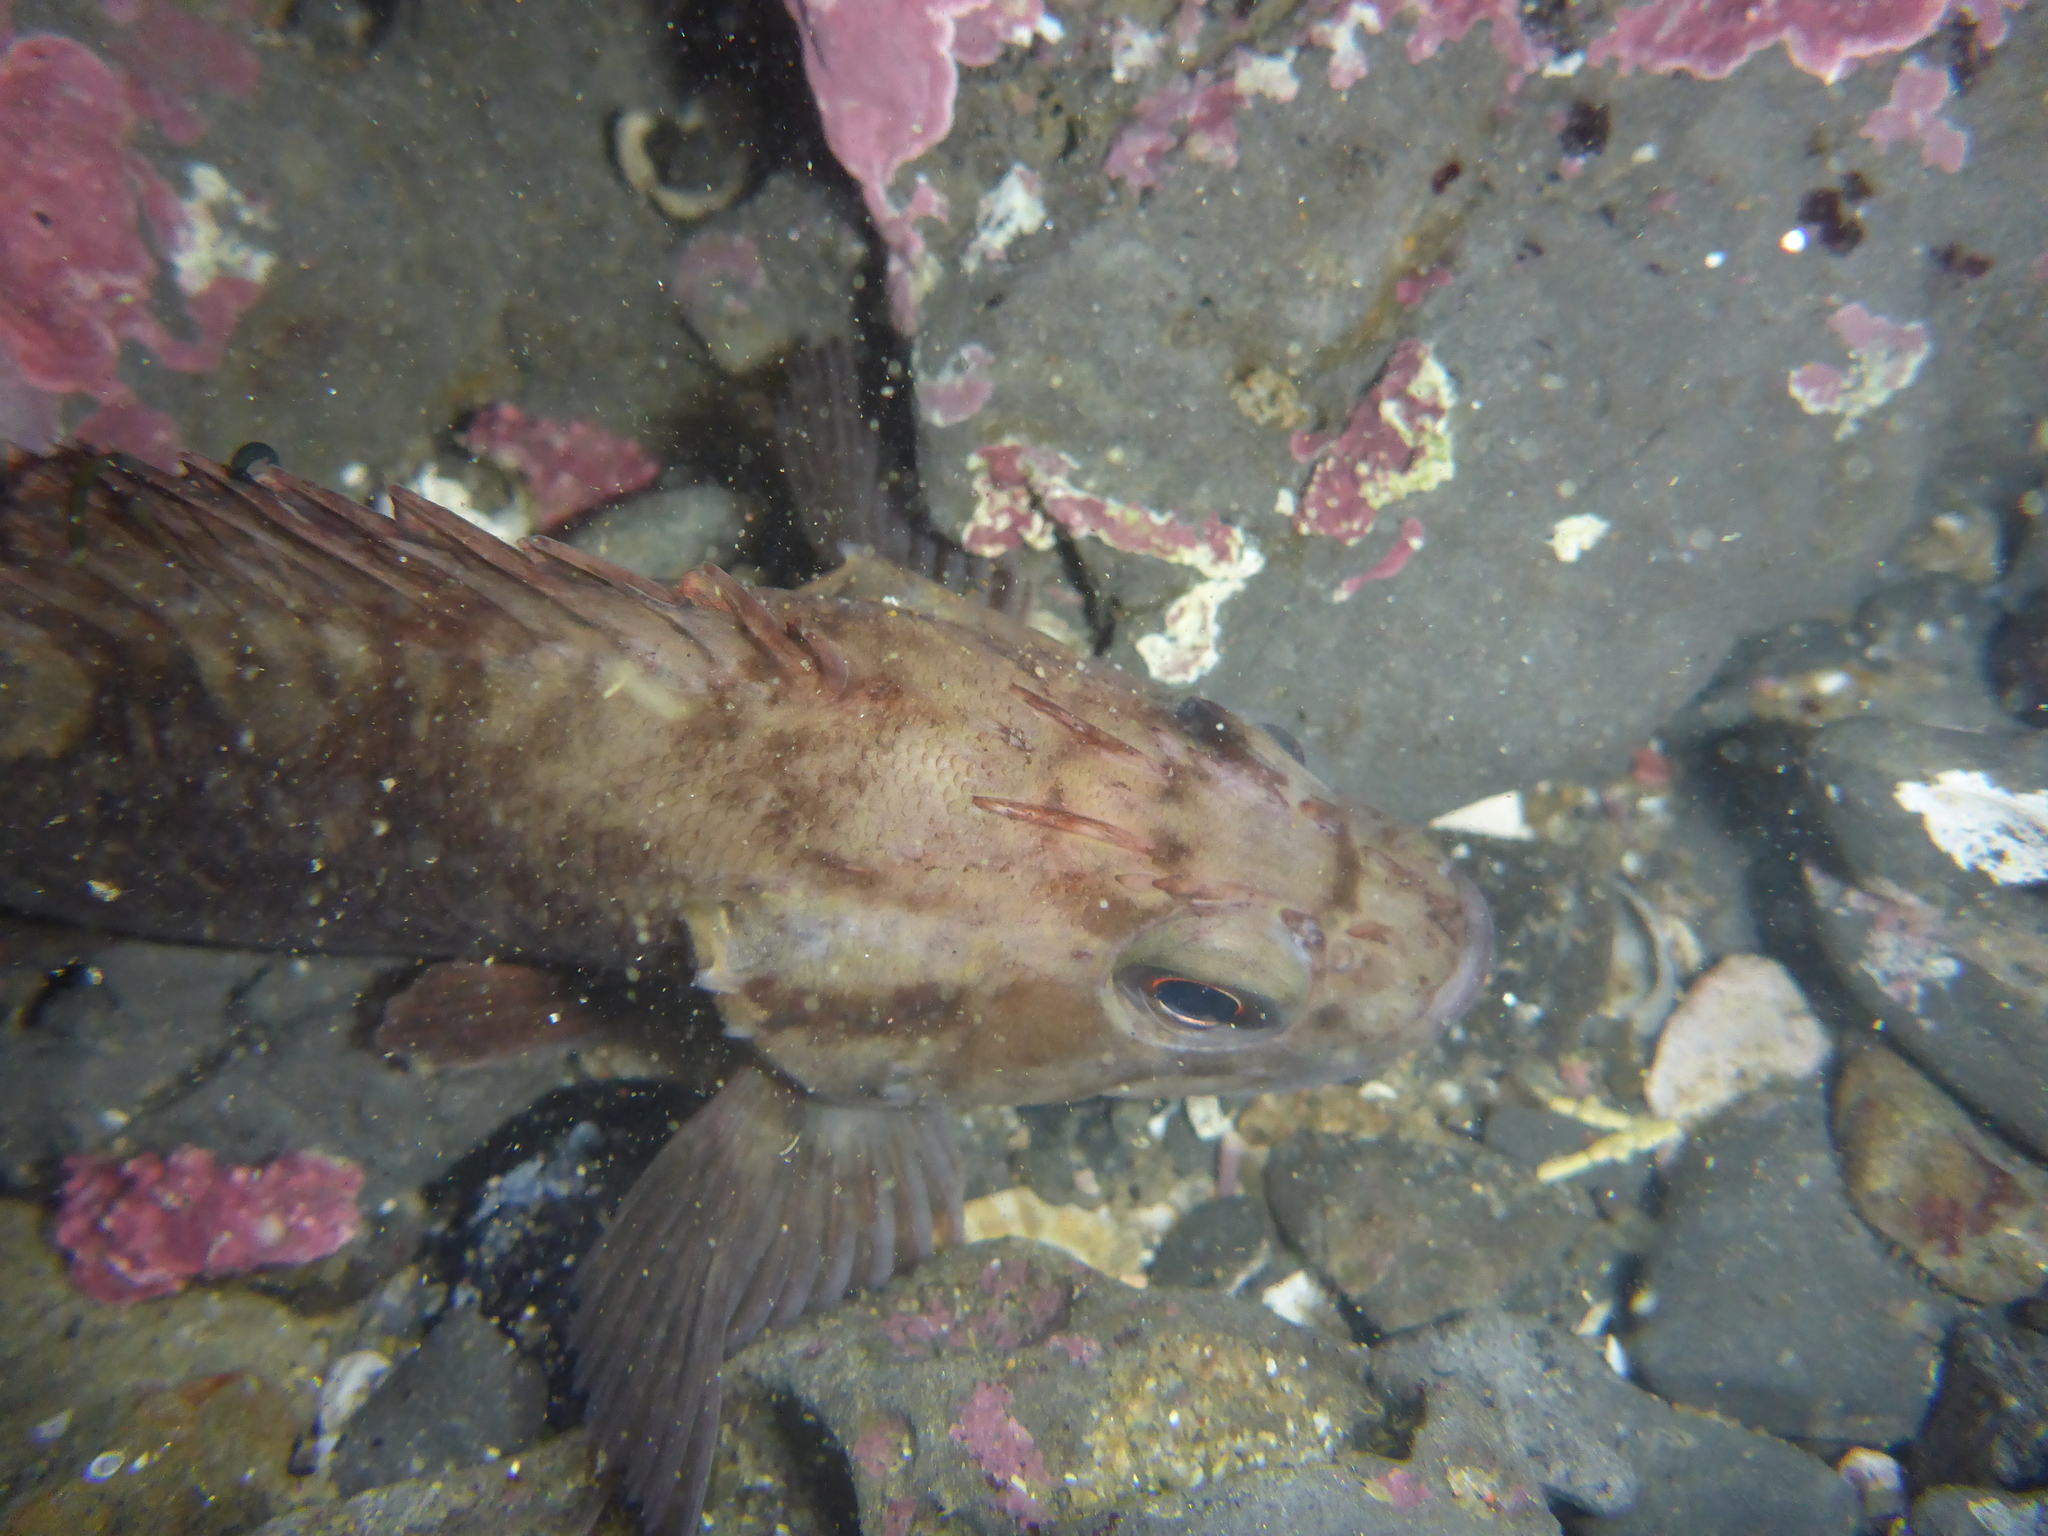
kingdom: Animalia
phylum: Chordata
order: Scorpaeniformes
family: Sebastidae
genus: Sebastes
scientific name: Sebastes rastrelliger
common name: Grass rockfish
